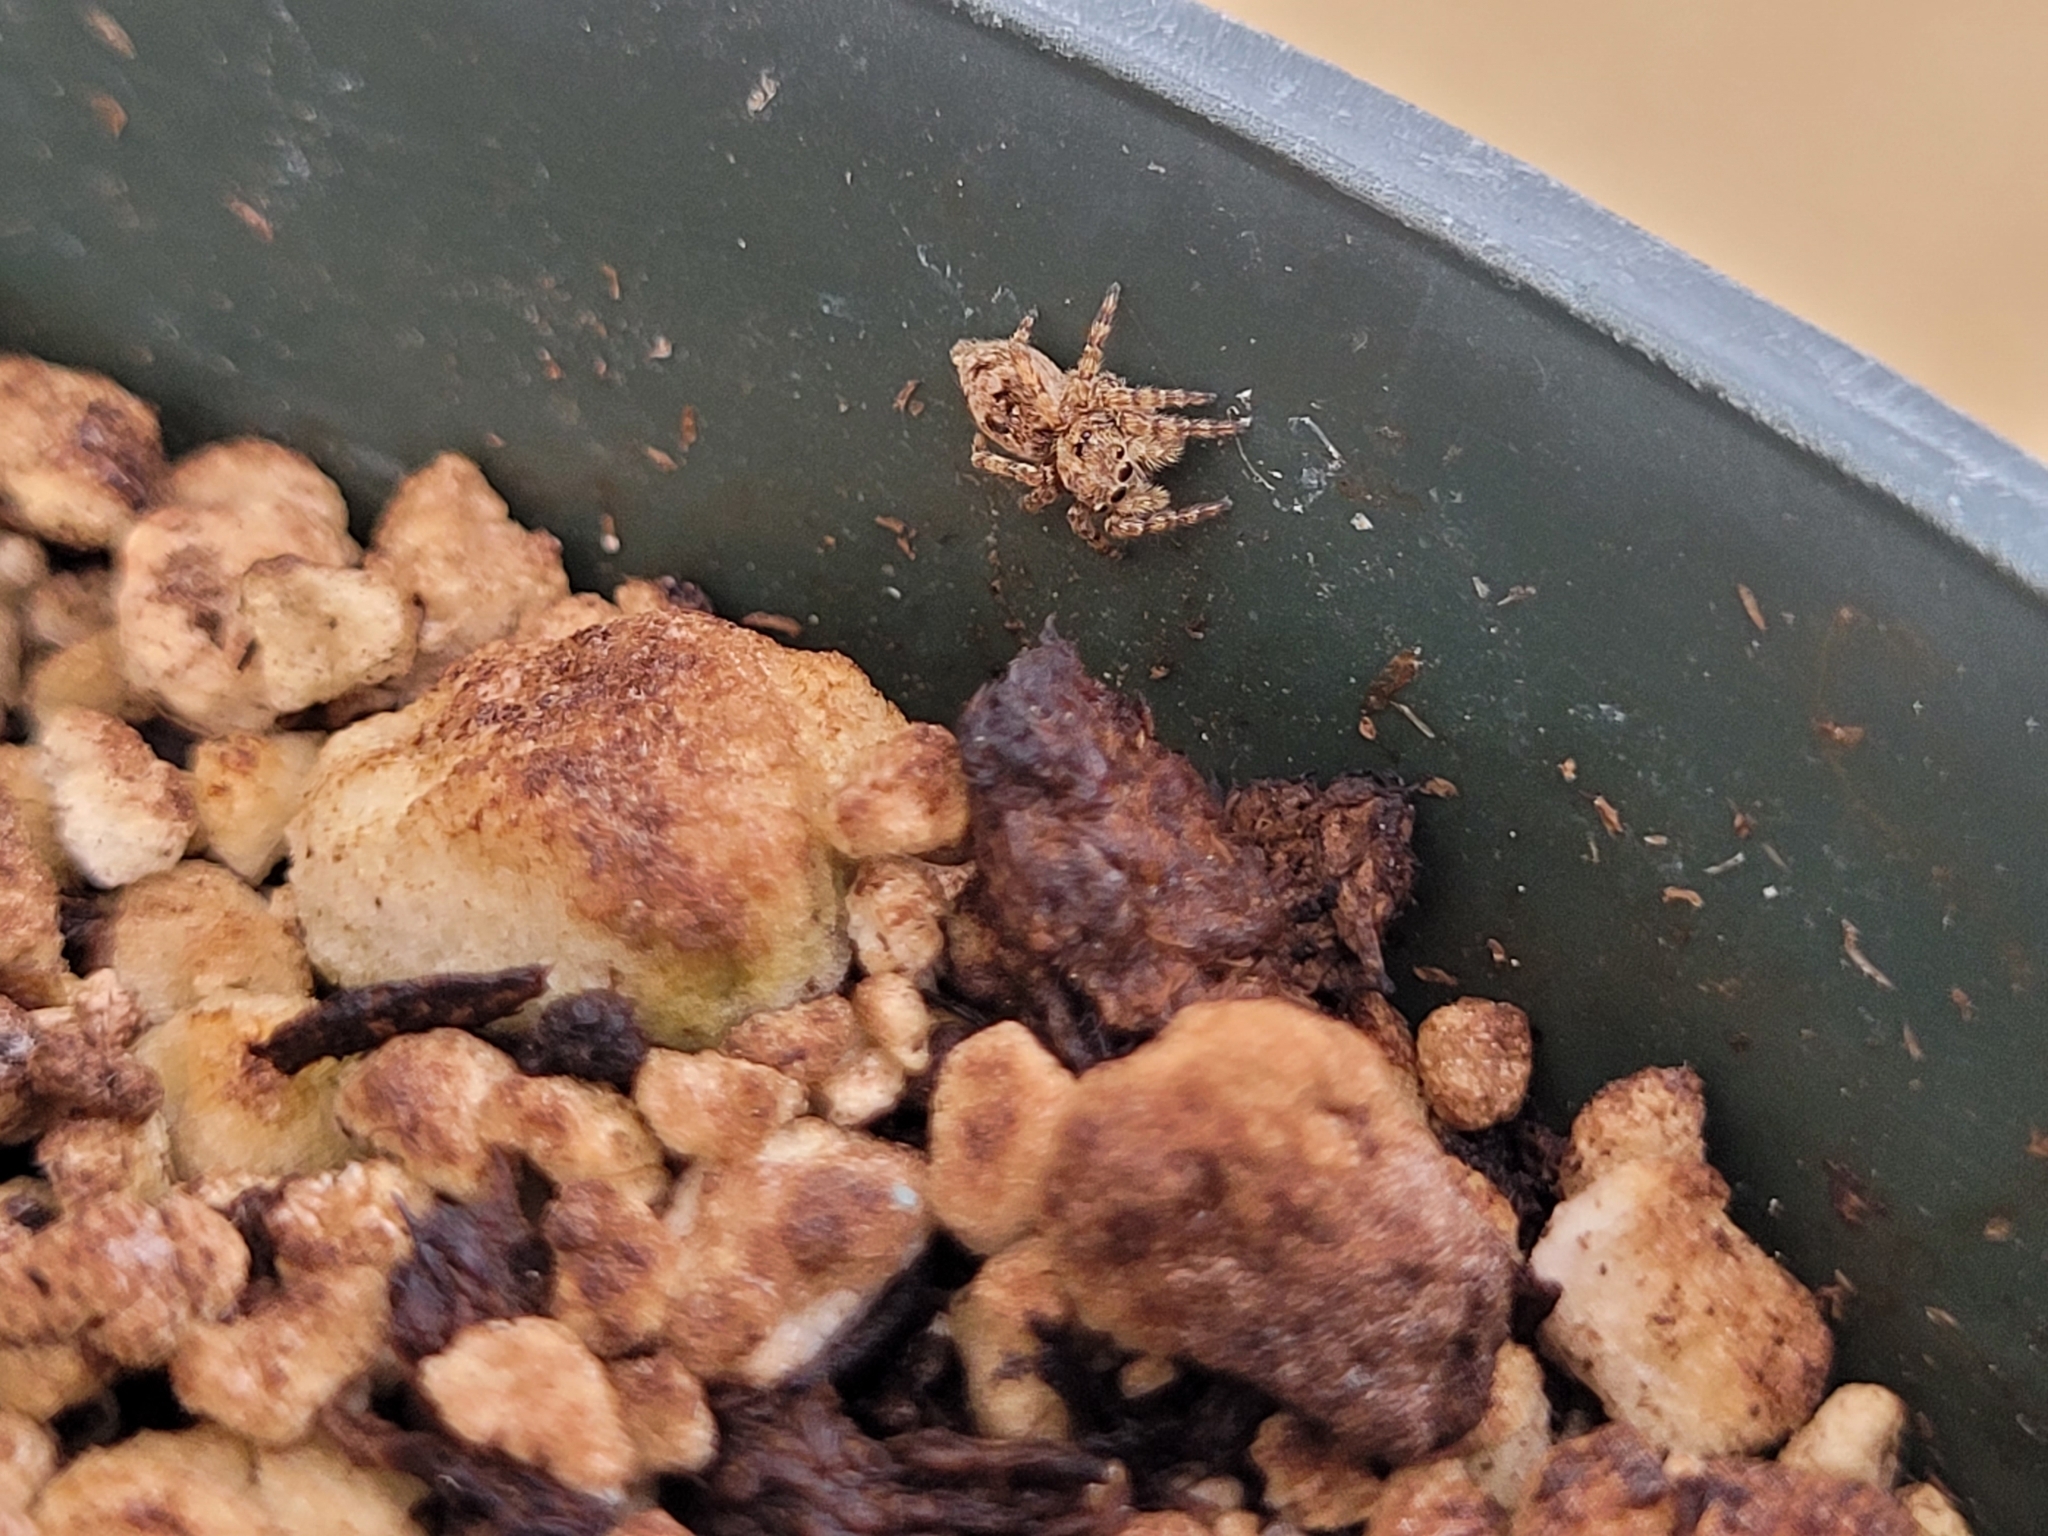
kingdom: Animalia
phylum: Arthropoda
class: Arachnida
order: Araneae
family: Salticidae
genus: Attulus
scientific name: Attulus fasciger
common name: Asiatic wall jumping spider
